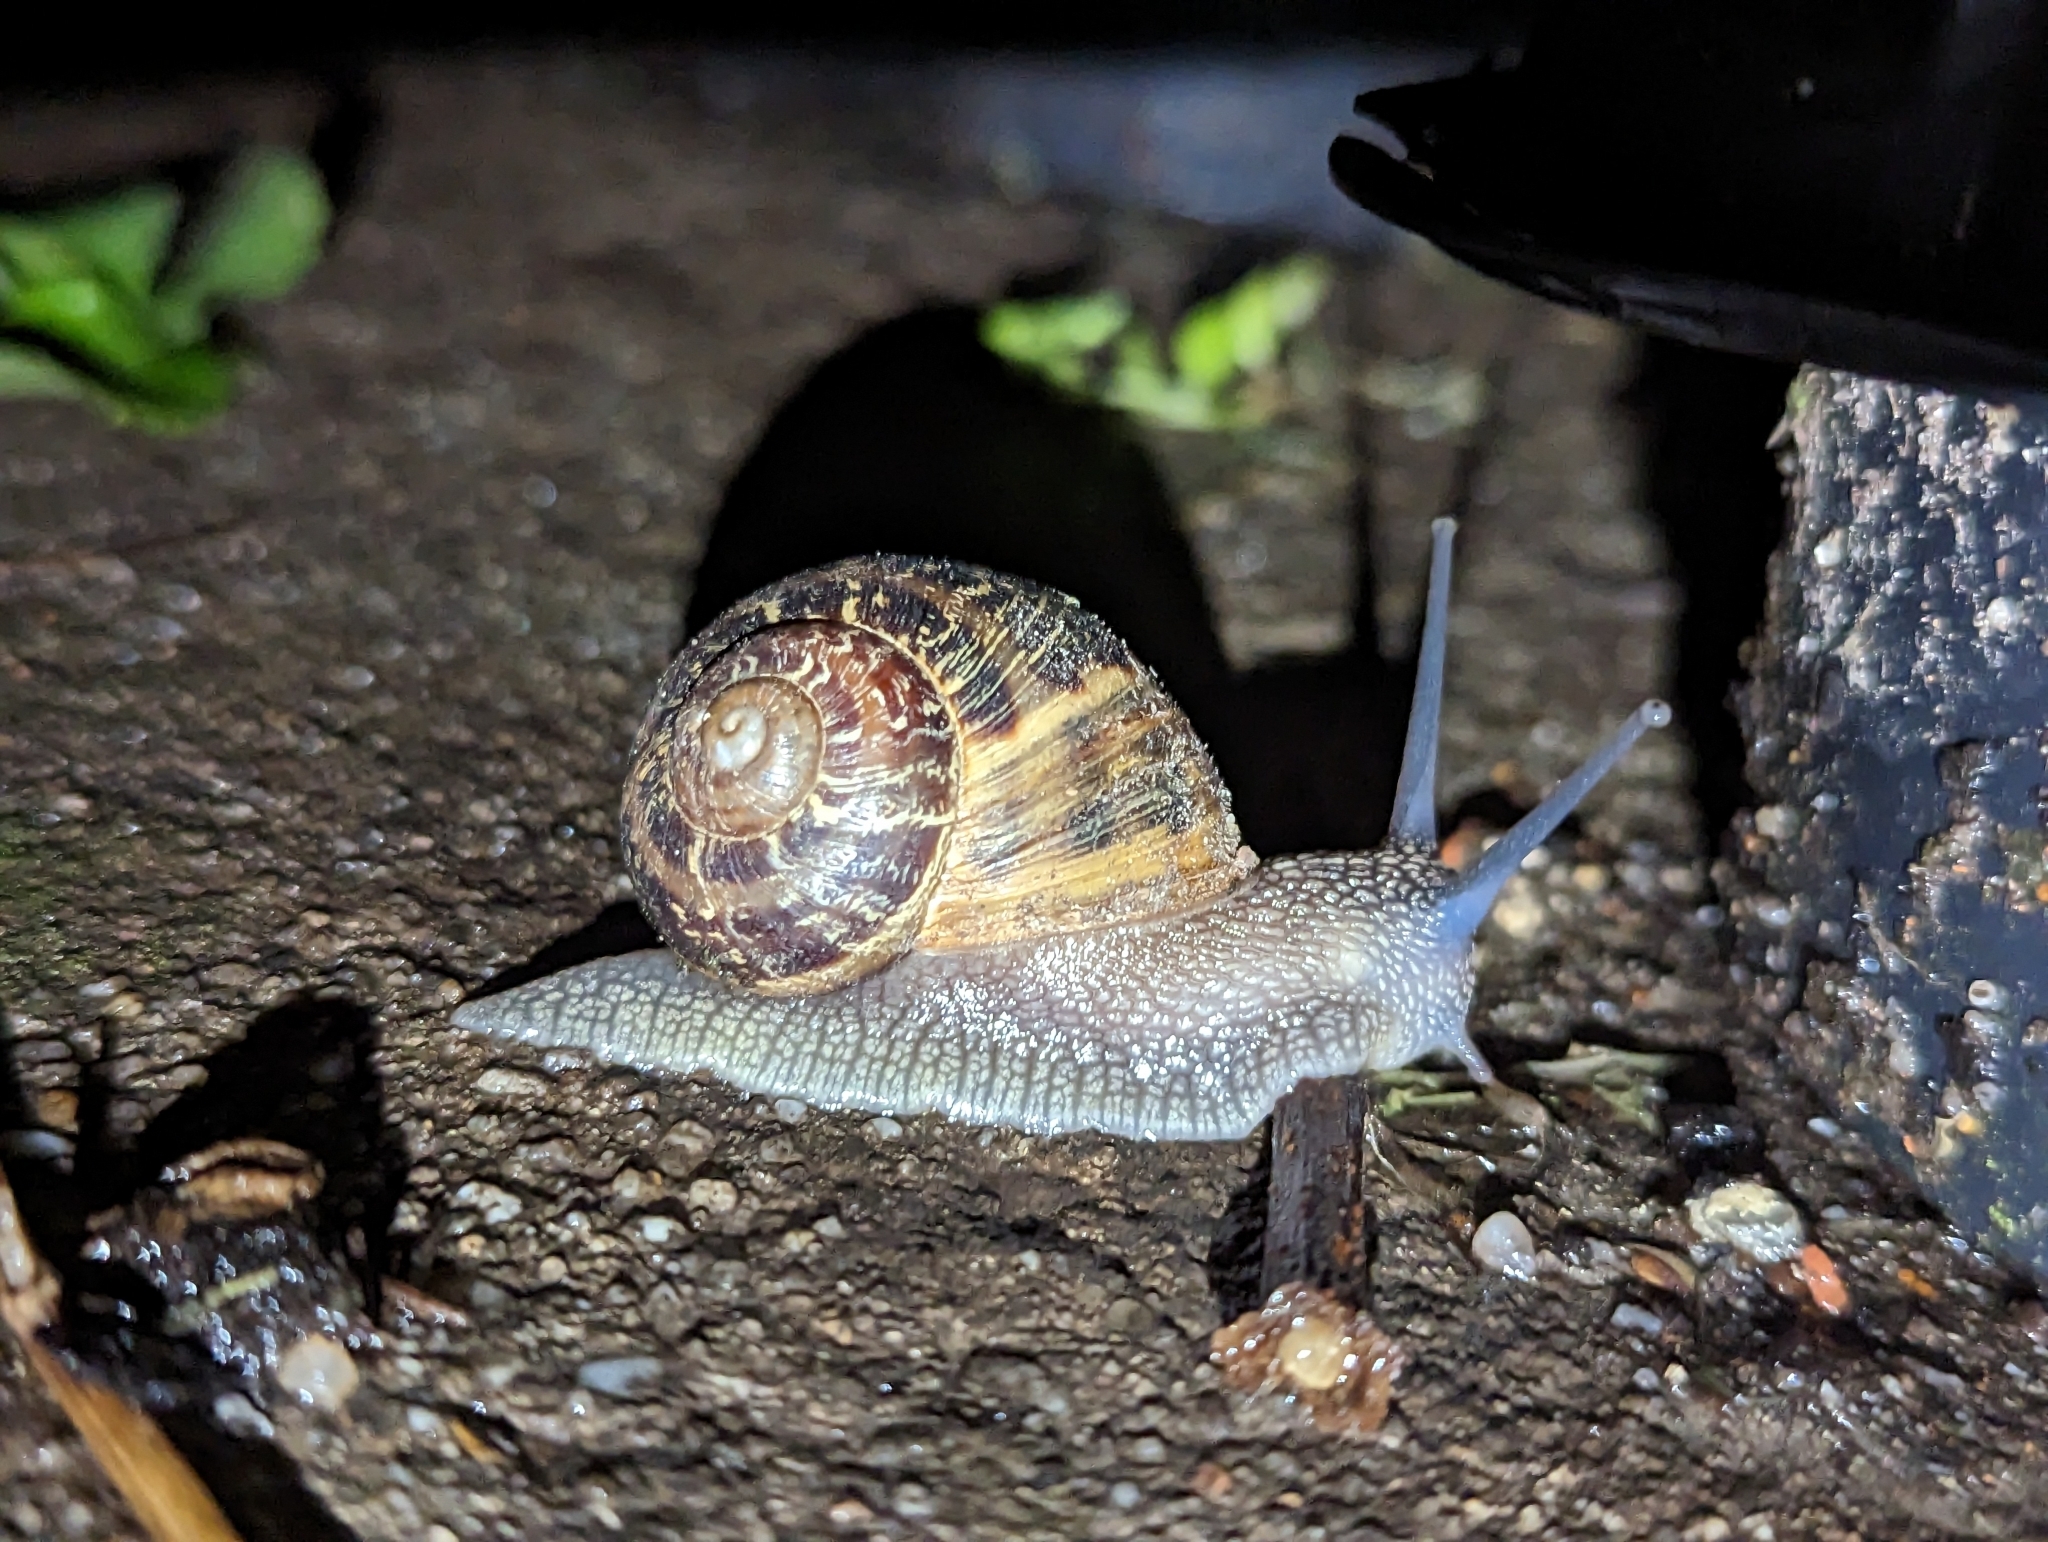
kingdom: Animalia
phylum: Mollusca
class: Gastropoda
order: Stylommatophora
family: Helicidae
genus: Cornu
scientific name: Cornu aspersum
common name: Brown garden snail
